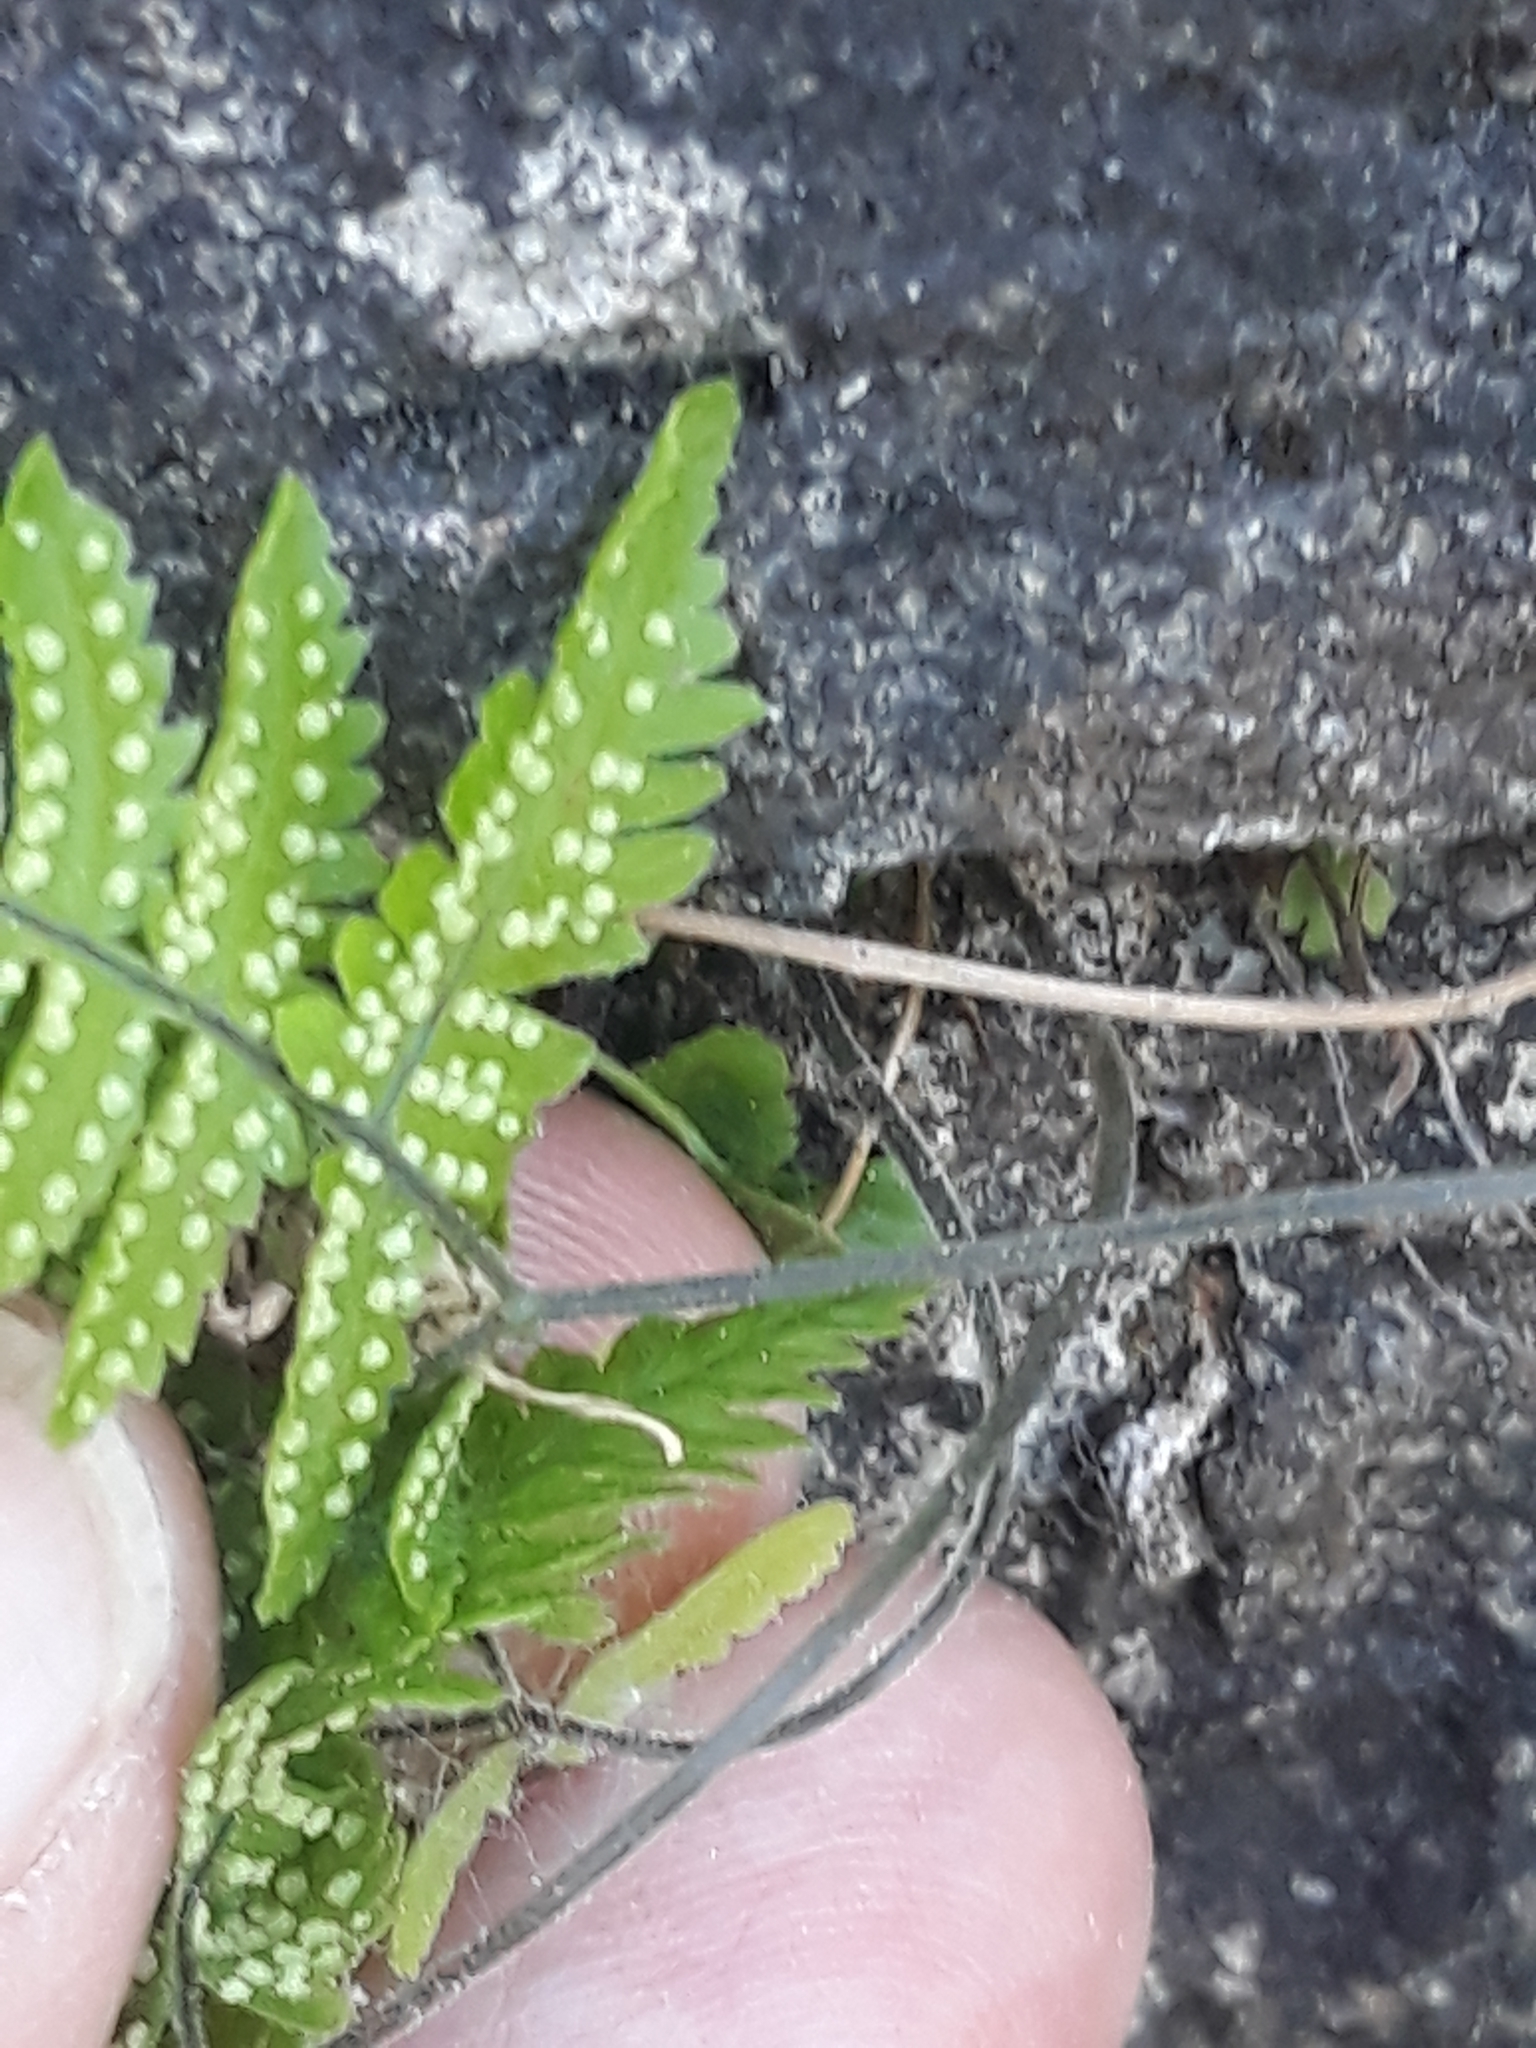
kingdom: Plantae
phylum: Tracheophyta
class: Polypodiopsida
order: Polypodiales
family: Cystopteridaceae
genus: Gymnocarpium
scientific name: Gymnocarpium robertianum
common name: Limestone fern
